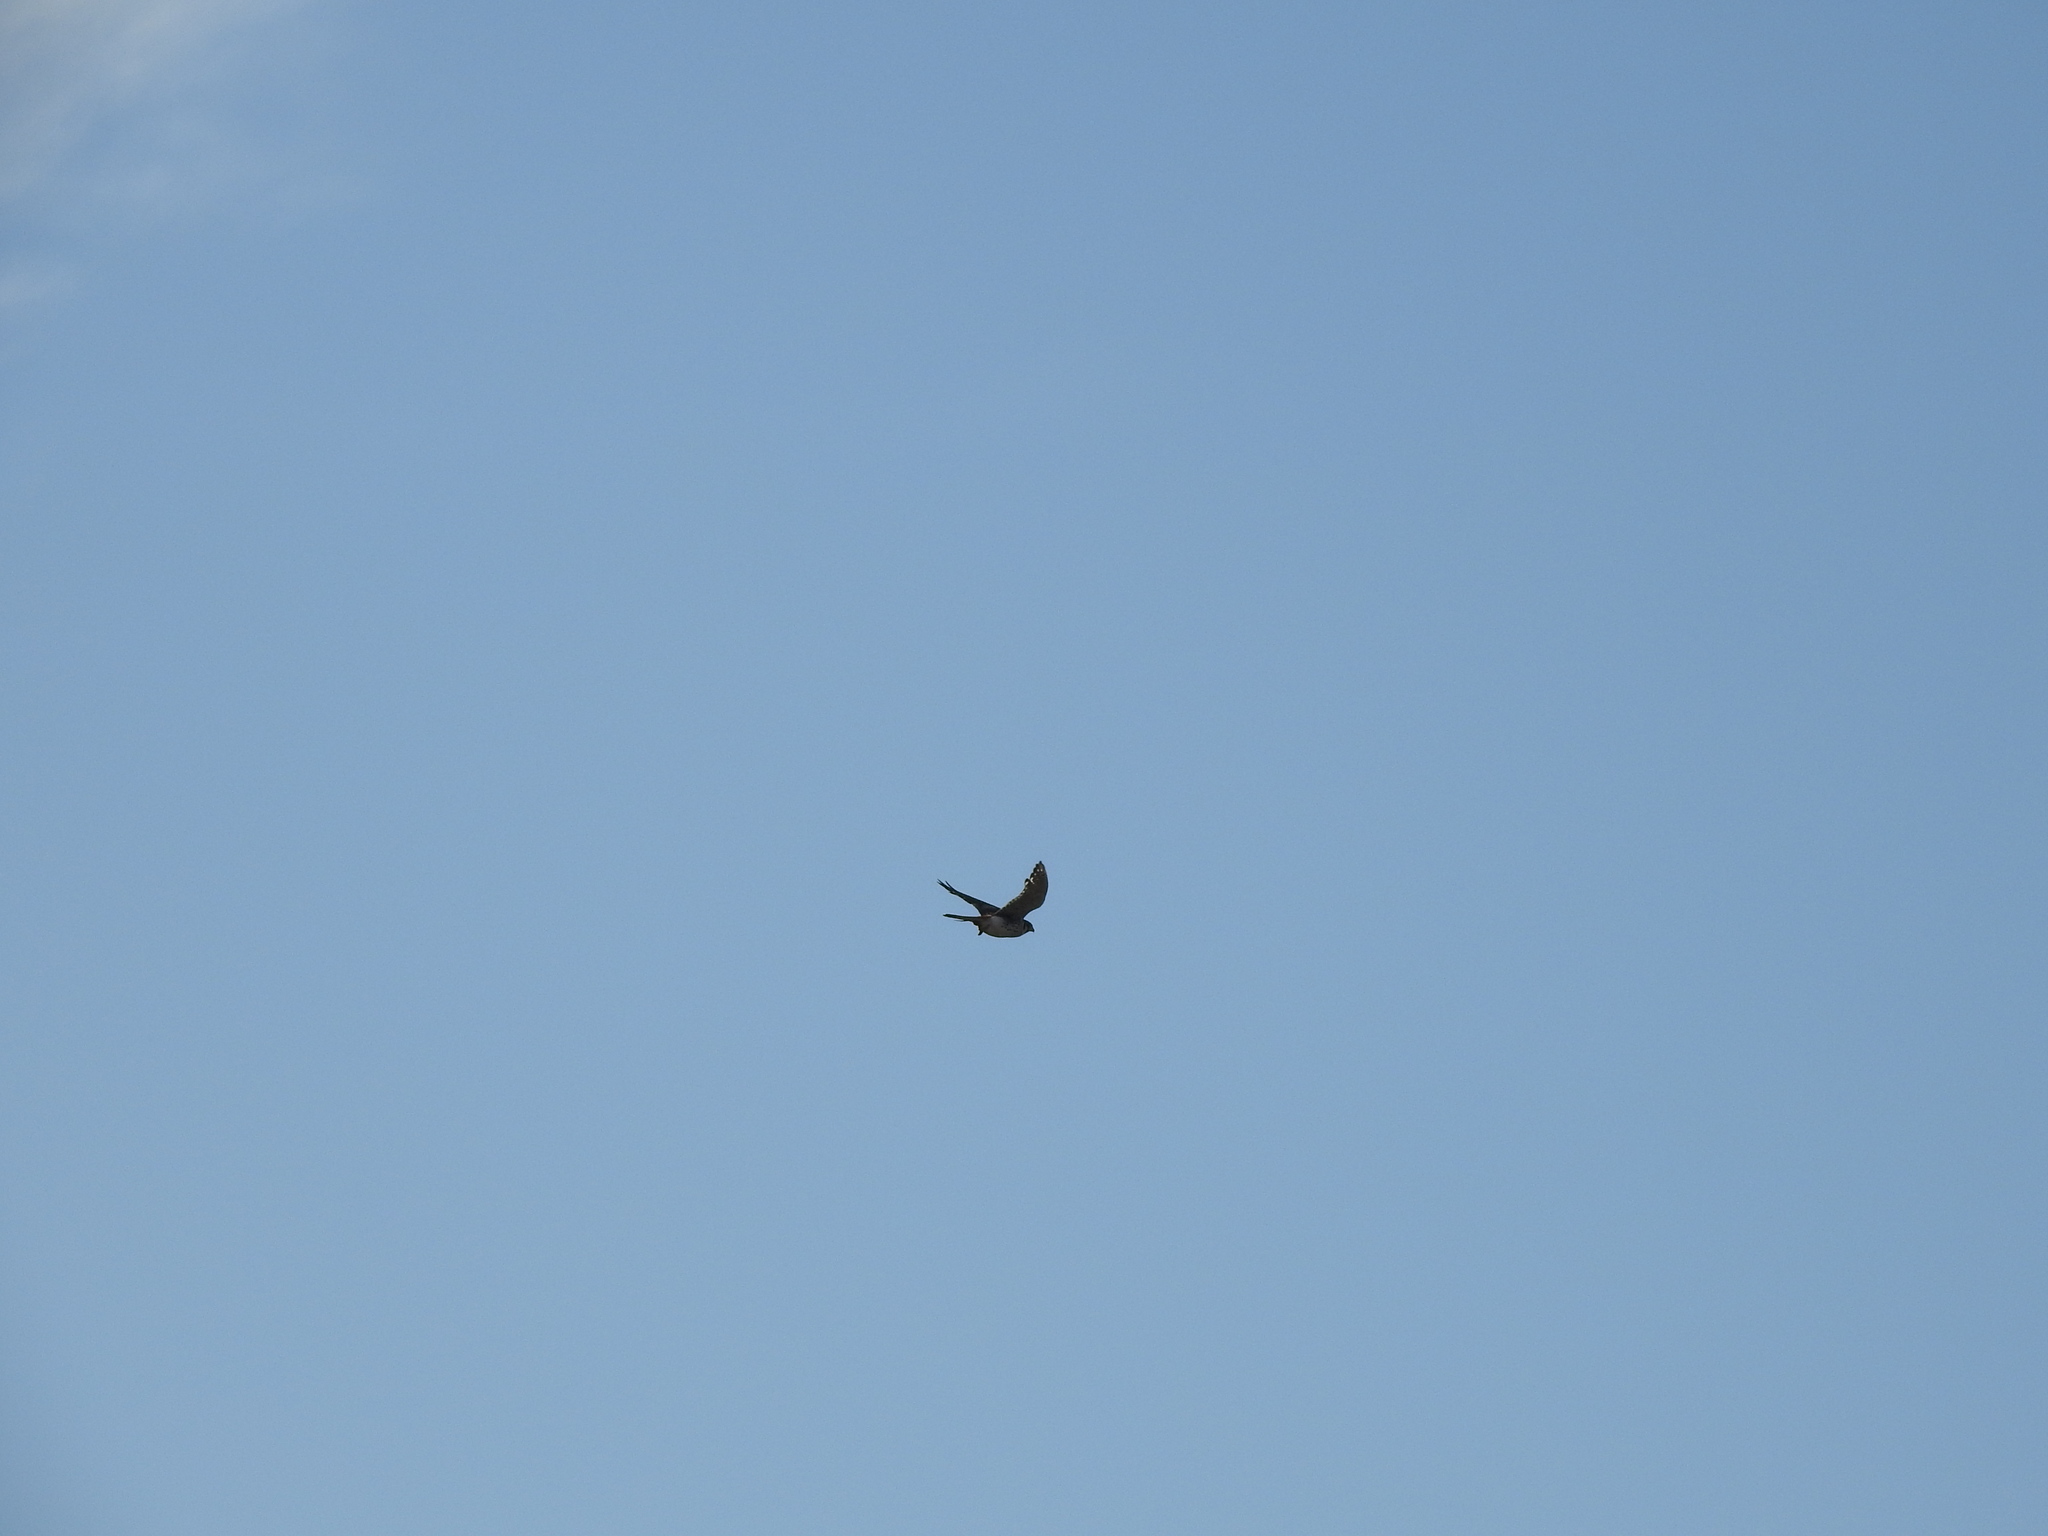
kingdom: Animalia
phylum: Chordata
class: Aves
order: Falconiformes
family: Falconidae
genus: Falco
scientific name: Falco sparverius
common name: American kestrel
